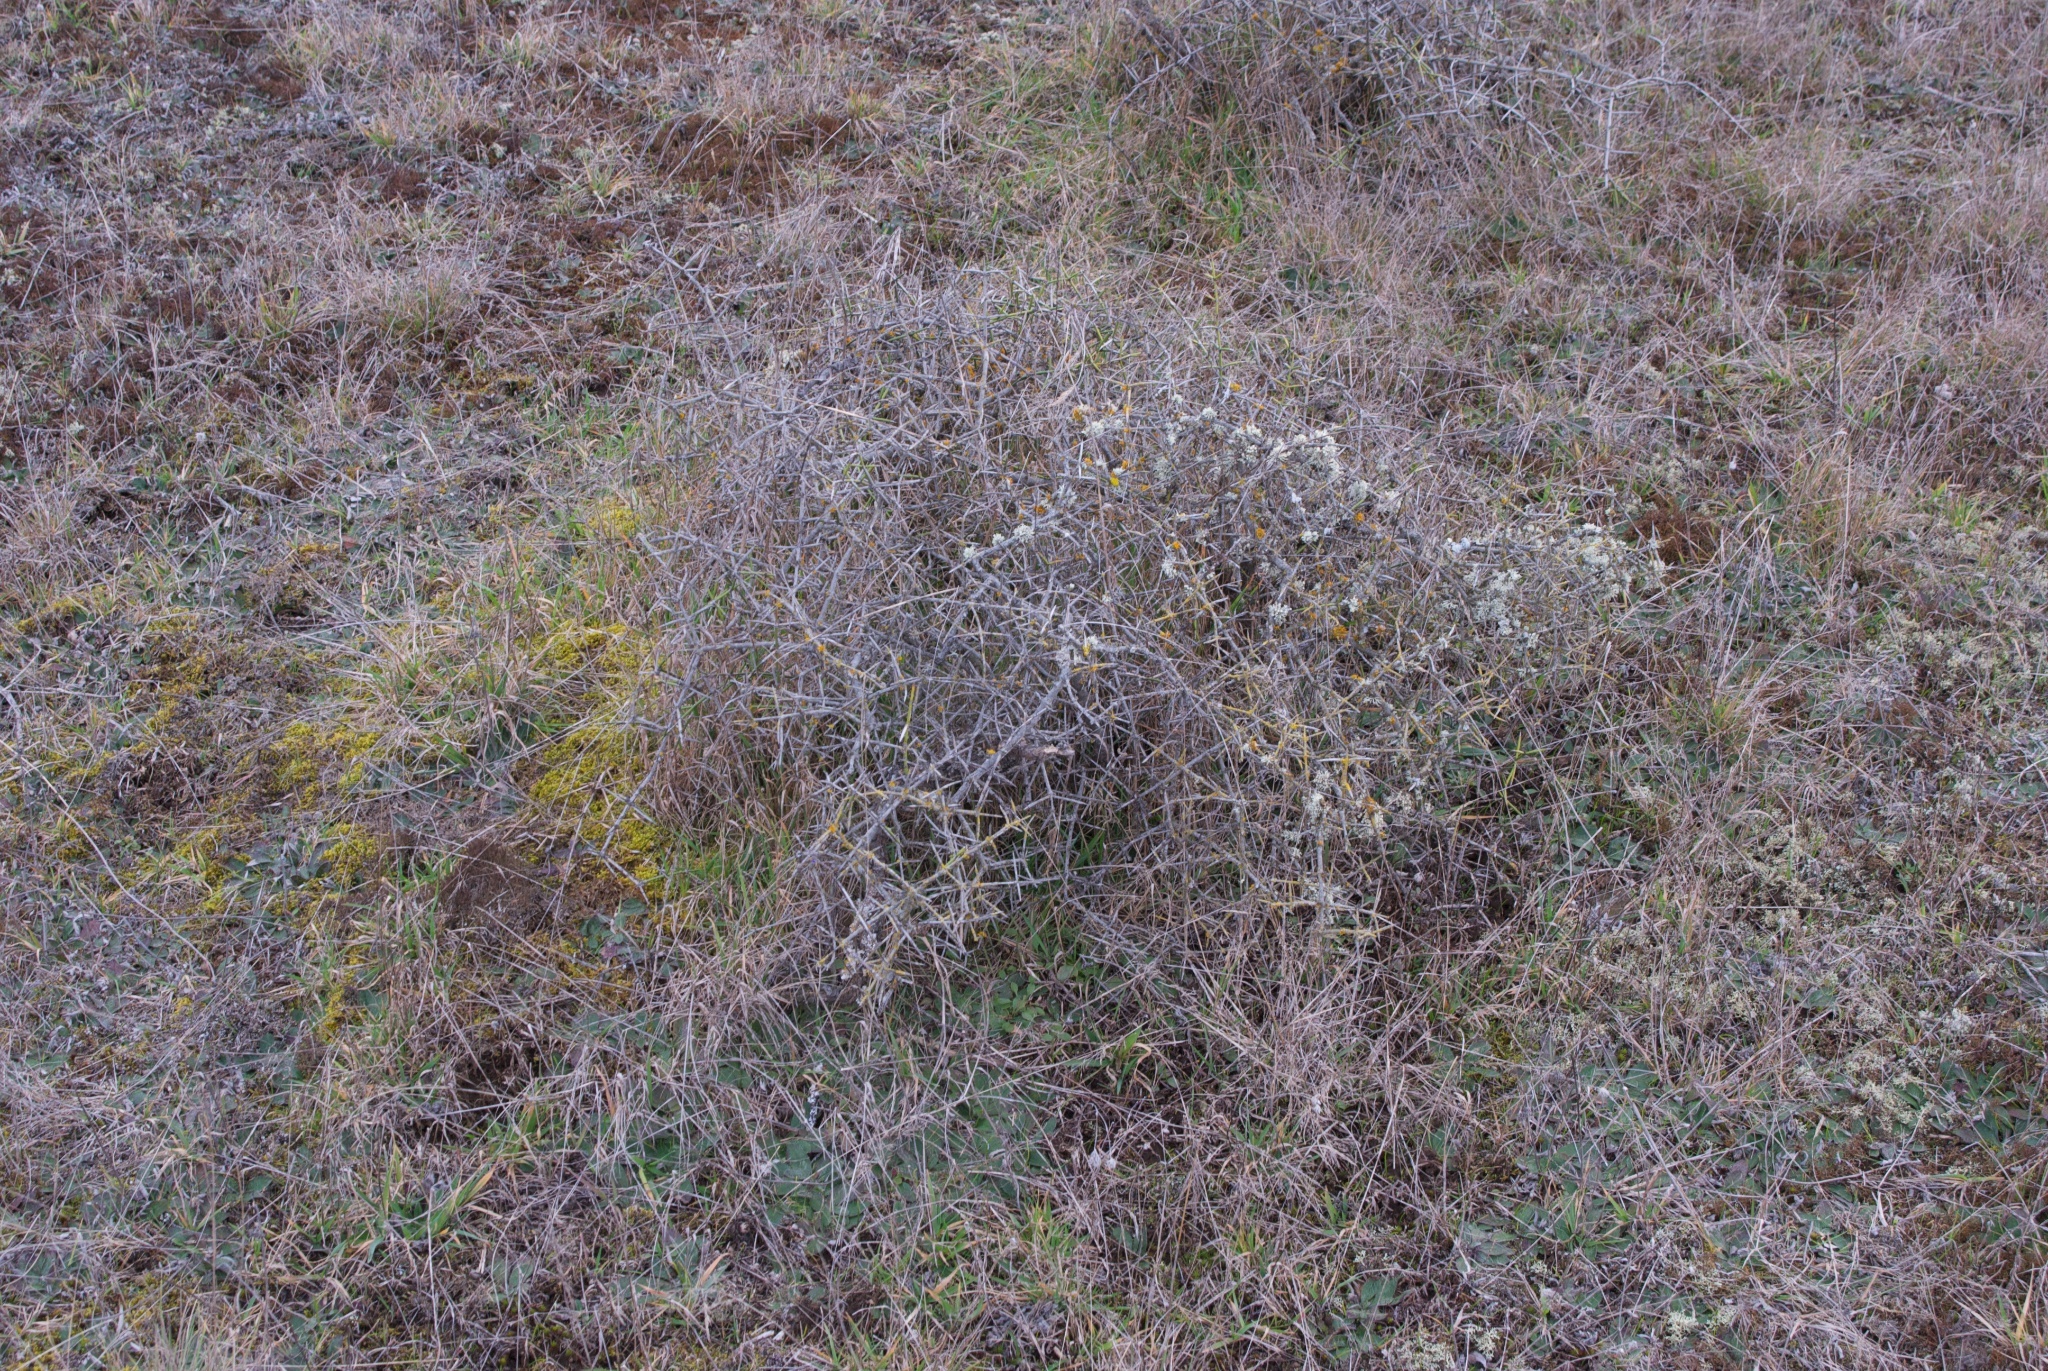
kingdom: Plantae
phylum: Tracheophyta
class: Magnoliopsida
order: Rosales
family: Rhamnaceae
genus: Discaria
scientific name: Discaria toumatou
